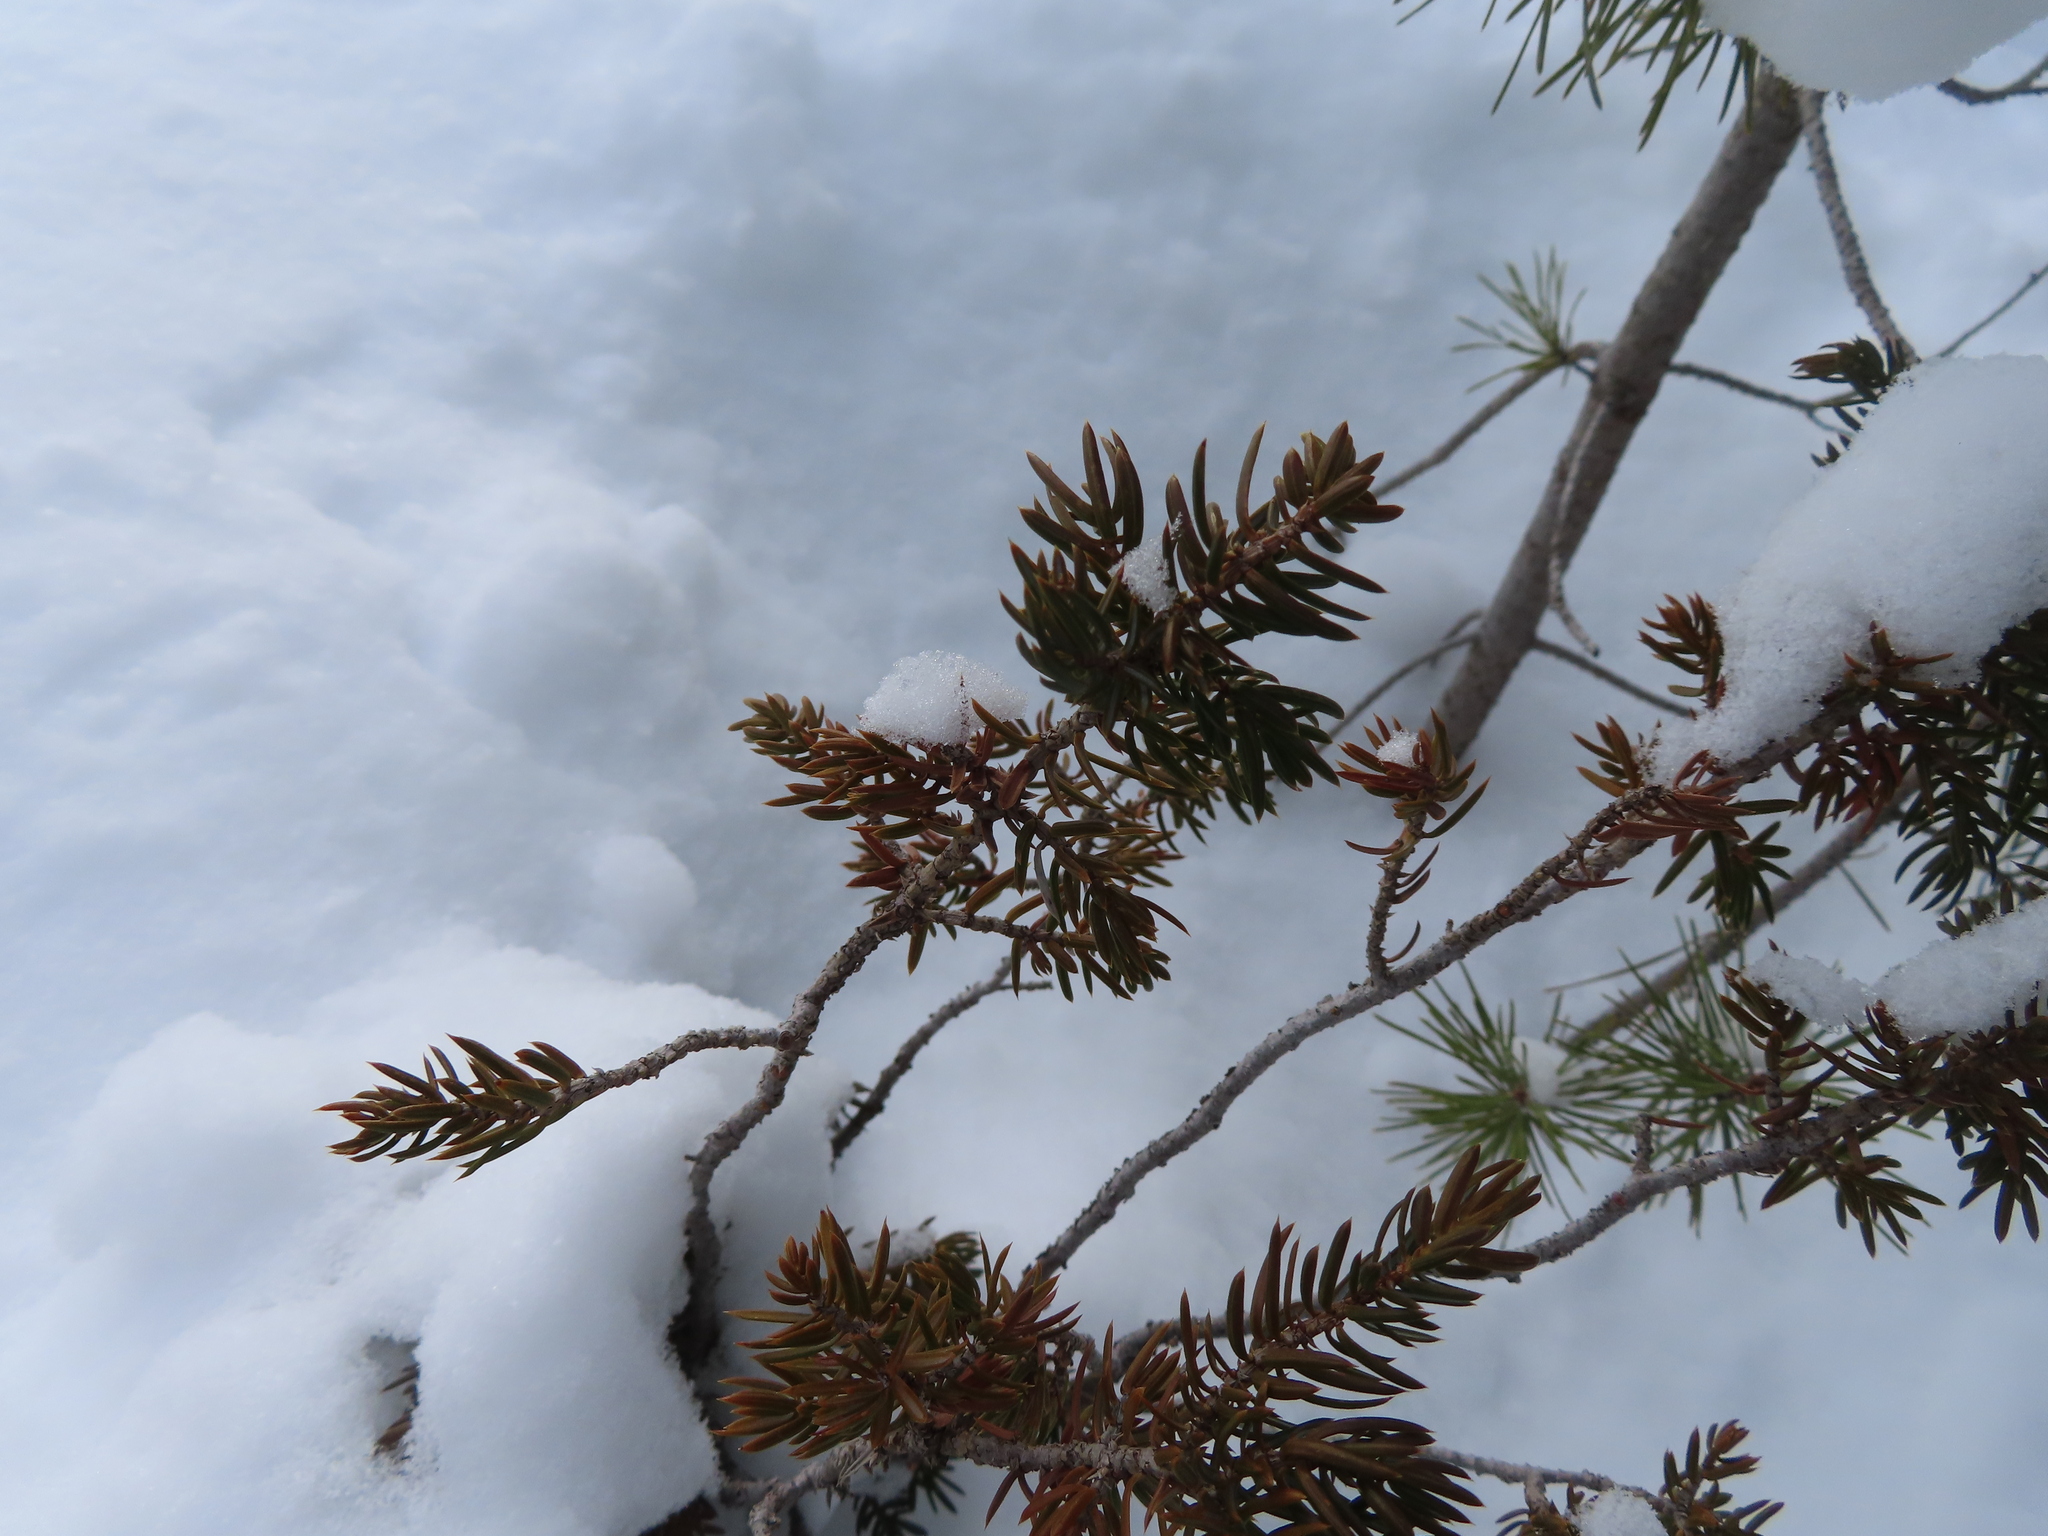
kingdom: Plantae
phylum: Tracheophyta
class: Pinopsida
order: Pinales
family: Cupressaceae
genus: Juniperus
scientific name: Juniperus communis
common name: Common juniper
